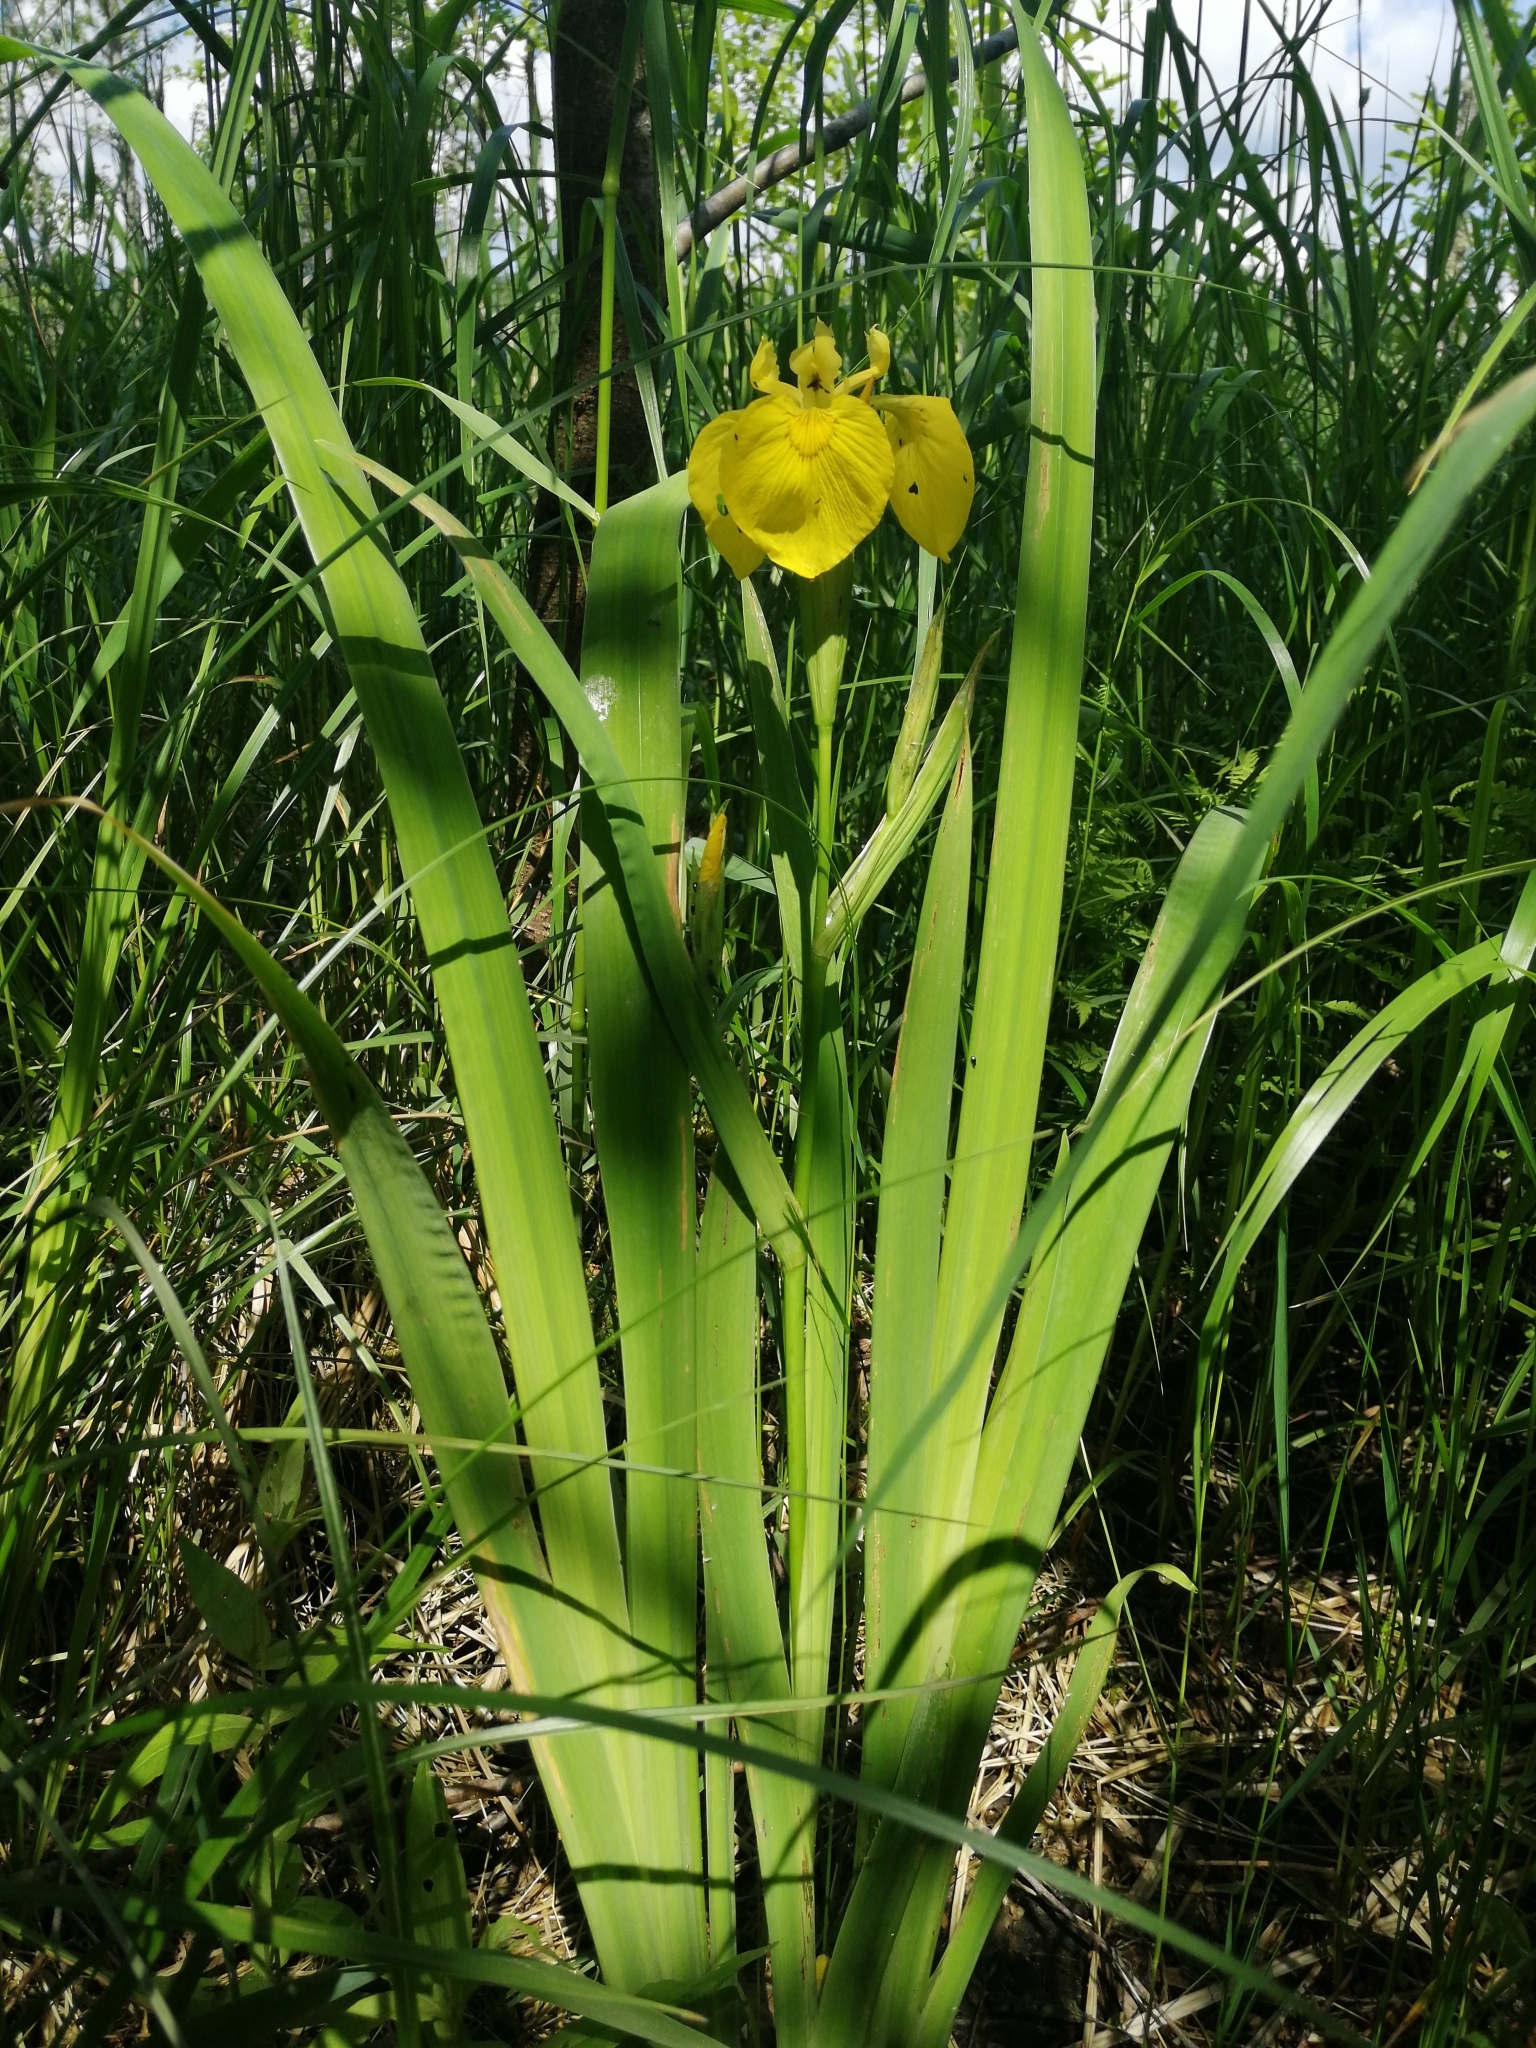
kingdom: Plantae
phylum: Tracheophyta
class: Liliopsida
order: Asparagales
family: Iridaceae
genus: Iris
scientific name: Iris pseudacorus
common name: Yellow flag
